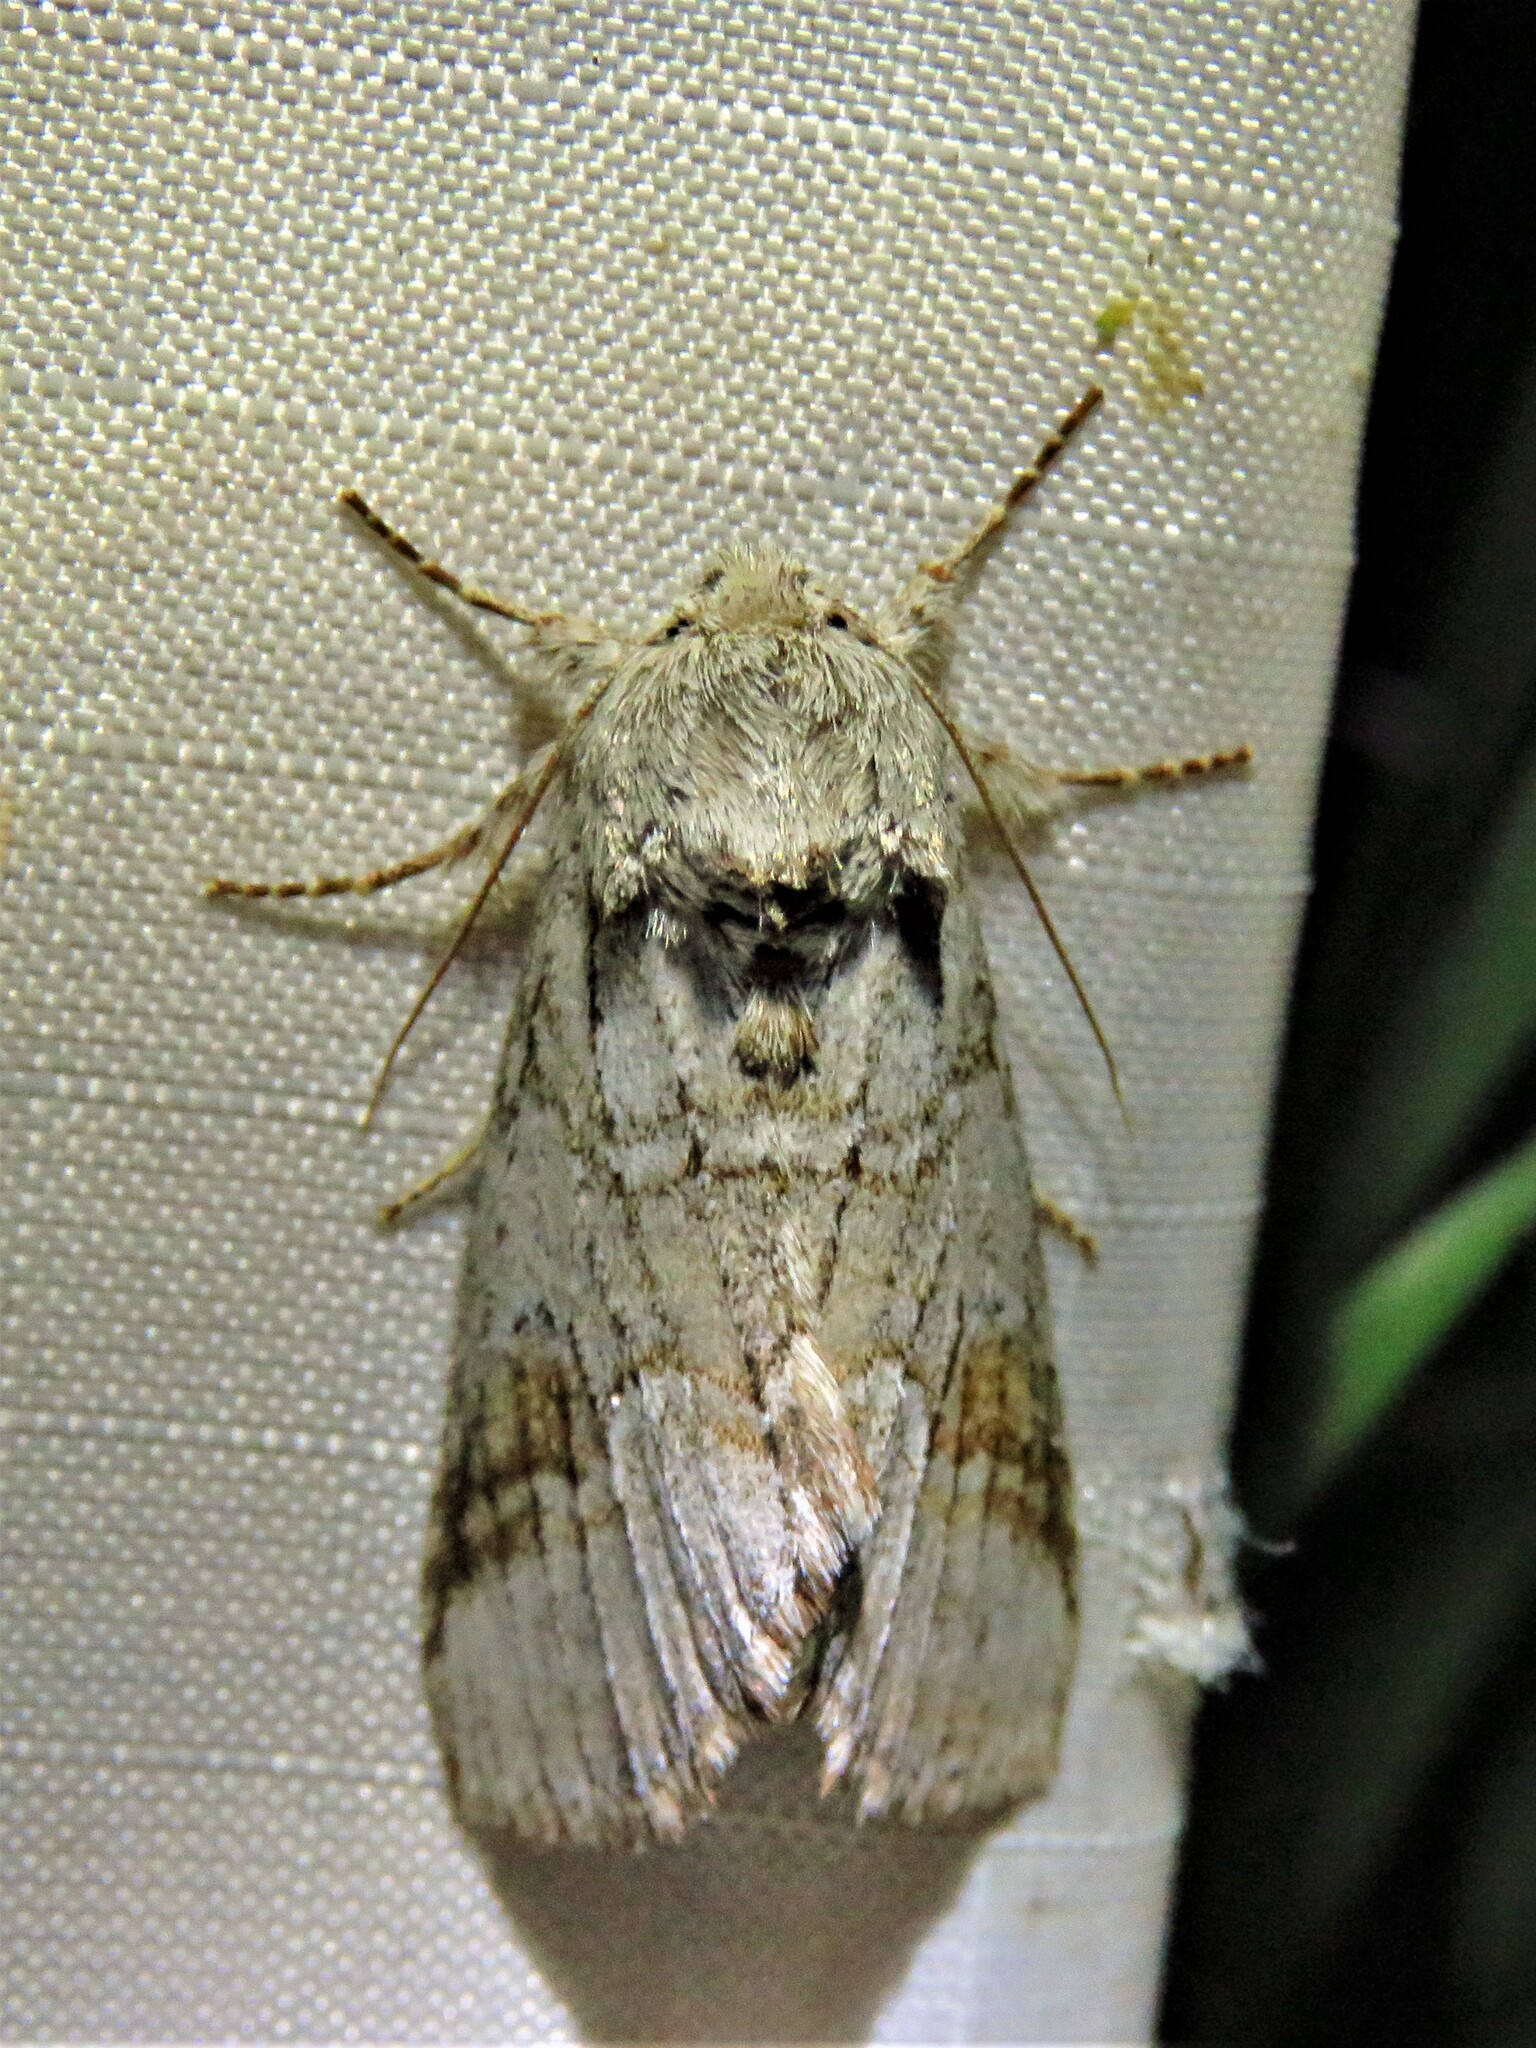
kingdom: Animalia
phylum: Arthropoda
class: Insecta
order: Lepidoptera
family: Notodontidae
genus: Lochmaeus
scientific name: Lochmaeus bilineata
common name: Double-lined prominent
